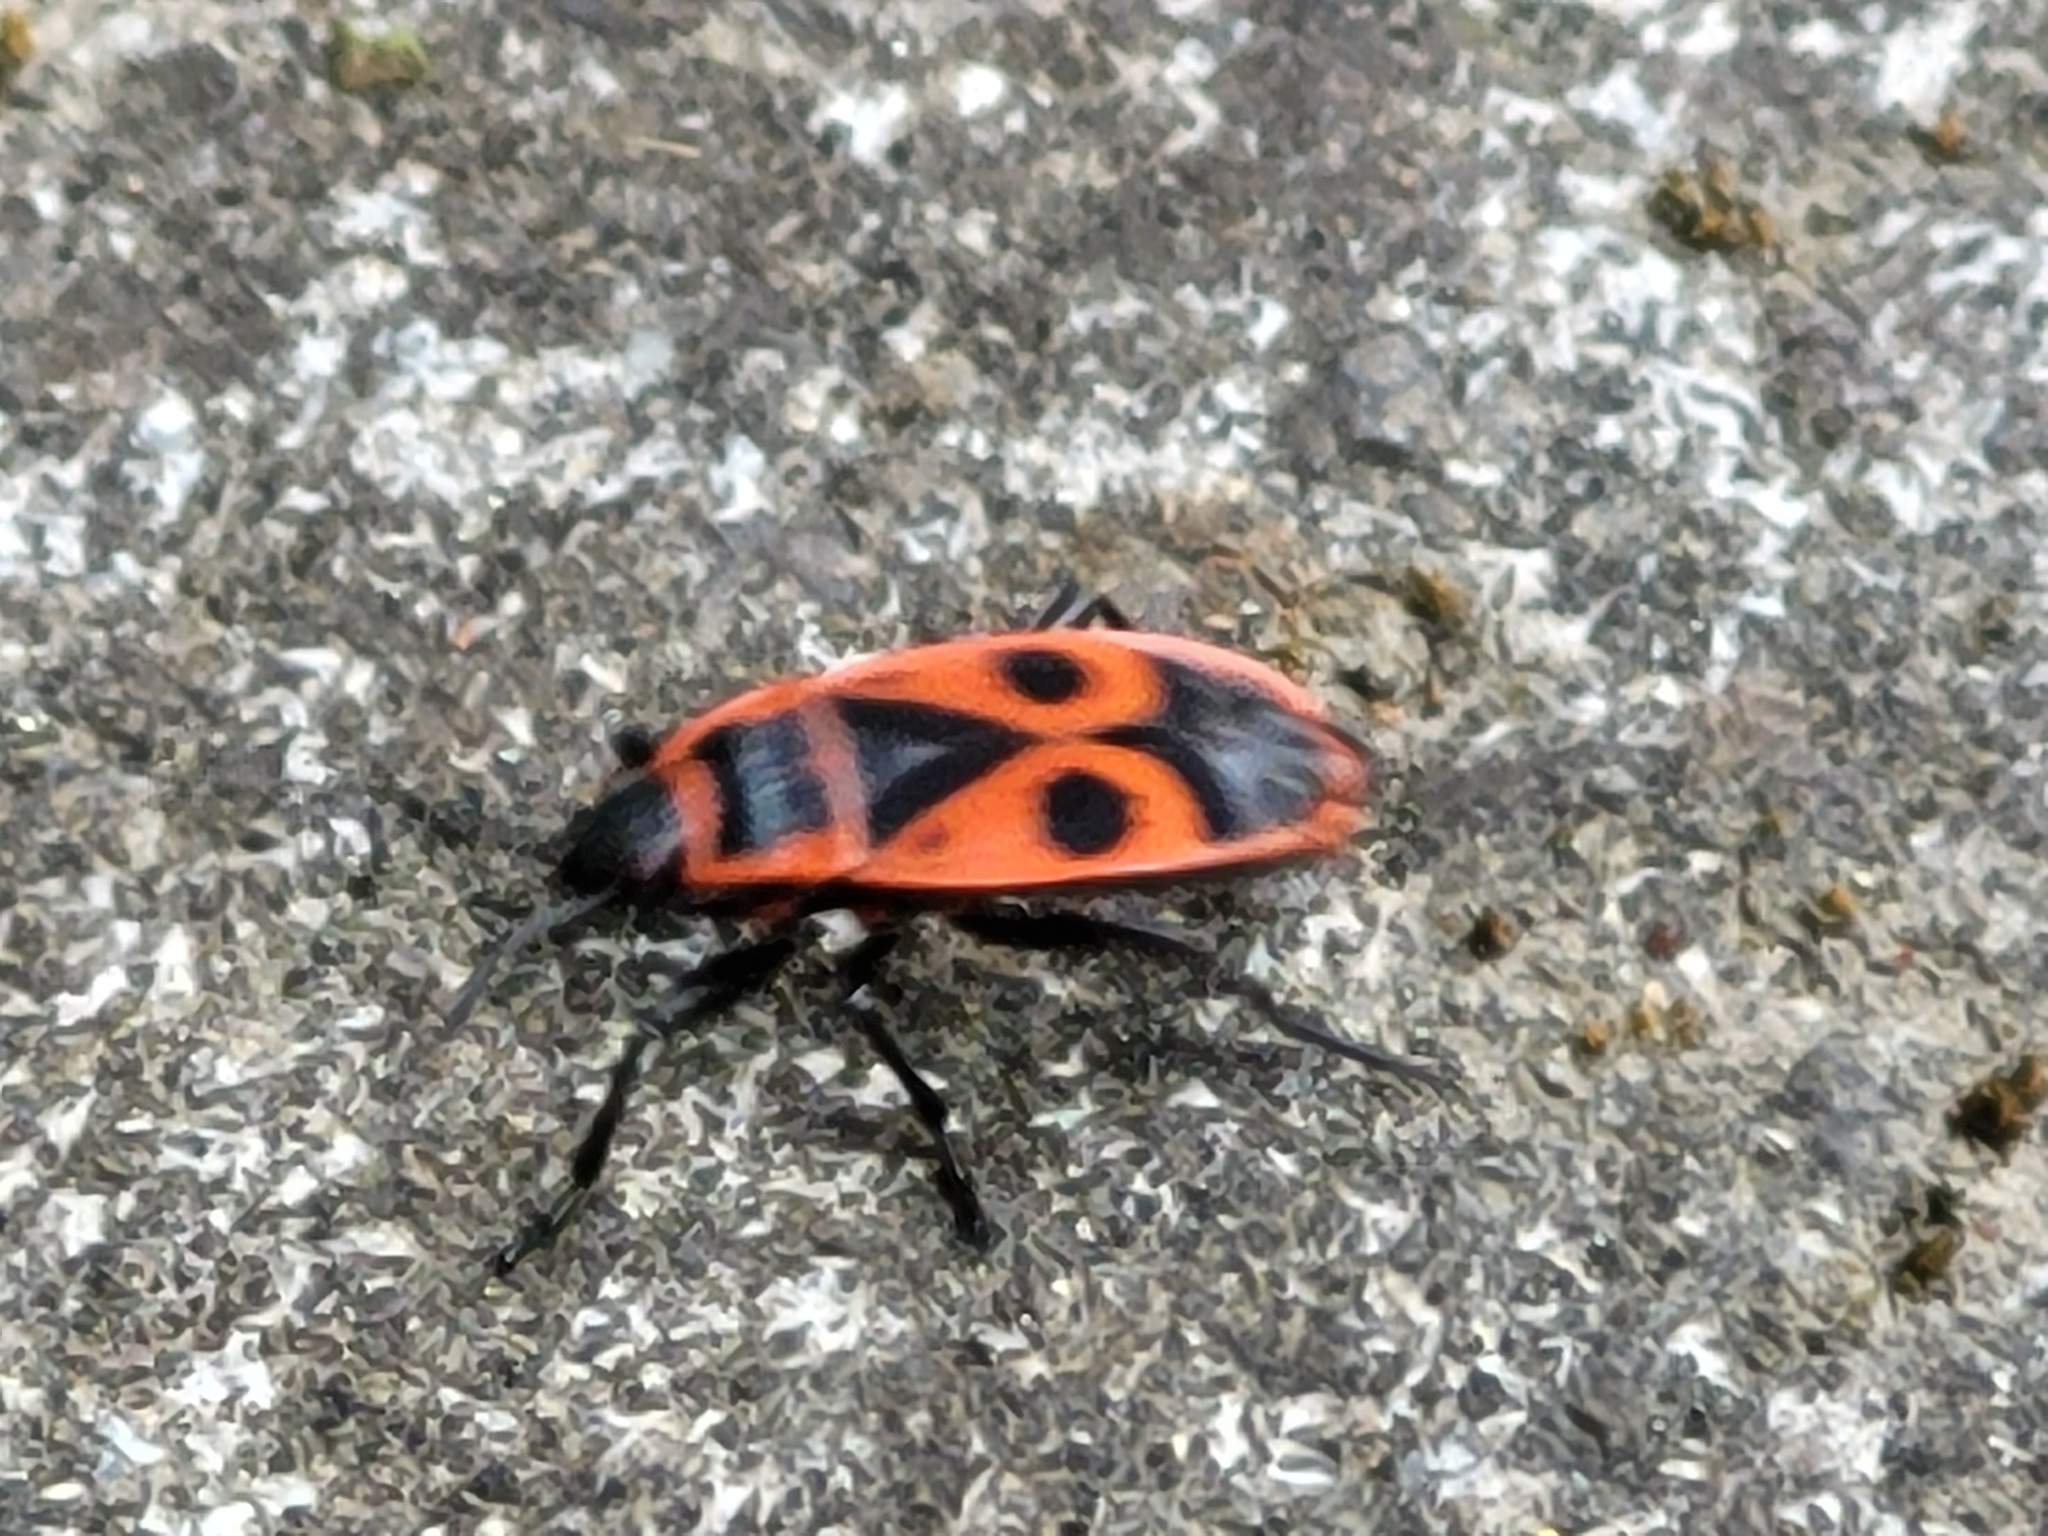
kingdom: Animalia
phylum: Arthropoda
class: Insecta
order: Hemiptera
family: Pyrrhocoridae
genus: Pyrrhocoris
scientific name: Pyrrhocoris apterus
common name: Firebug
